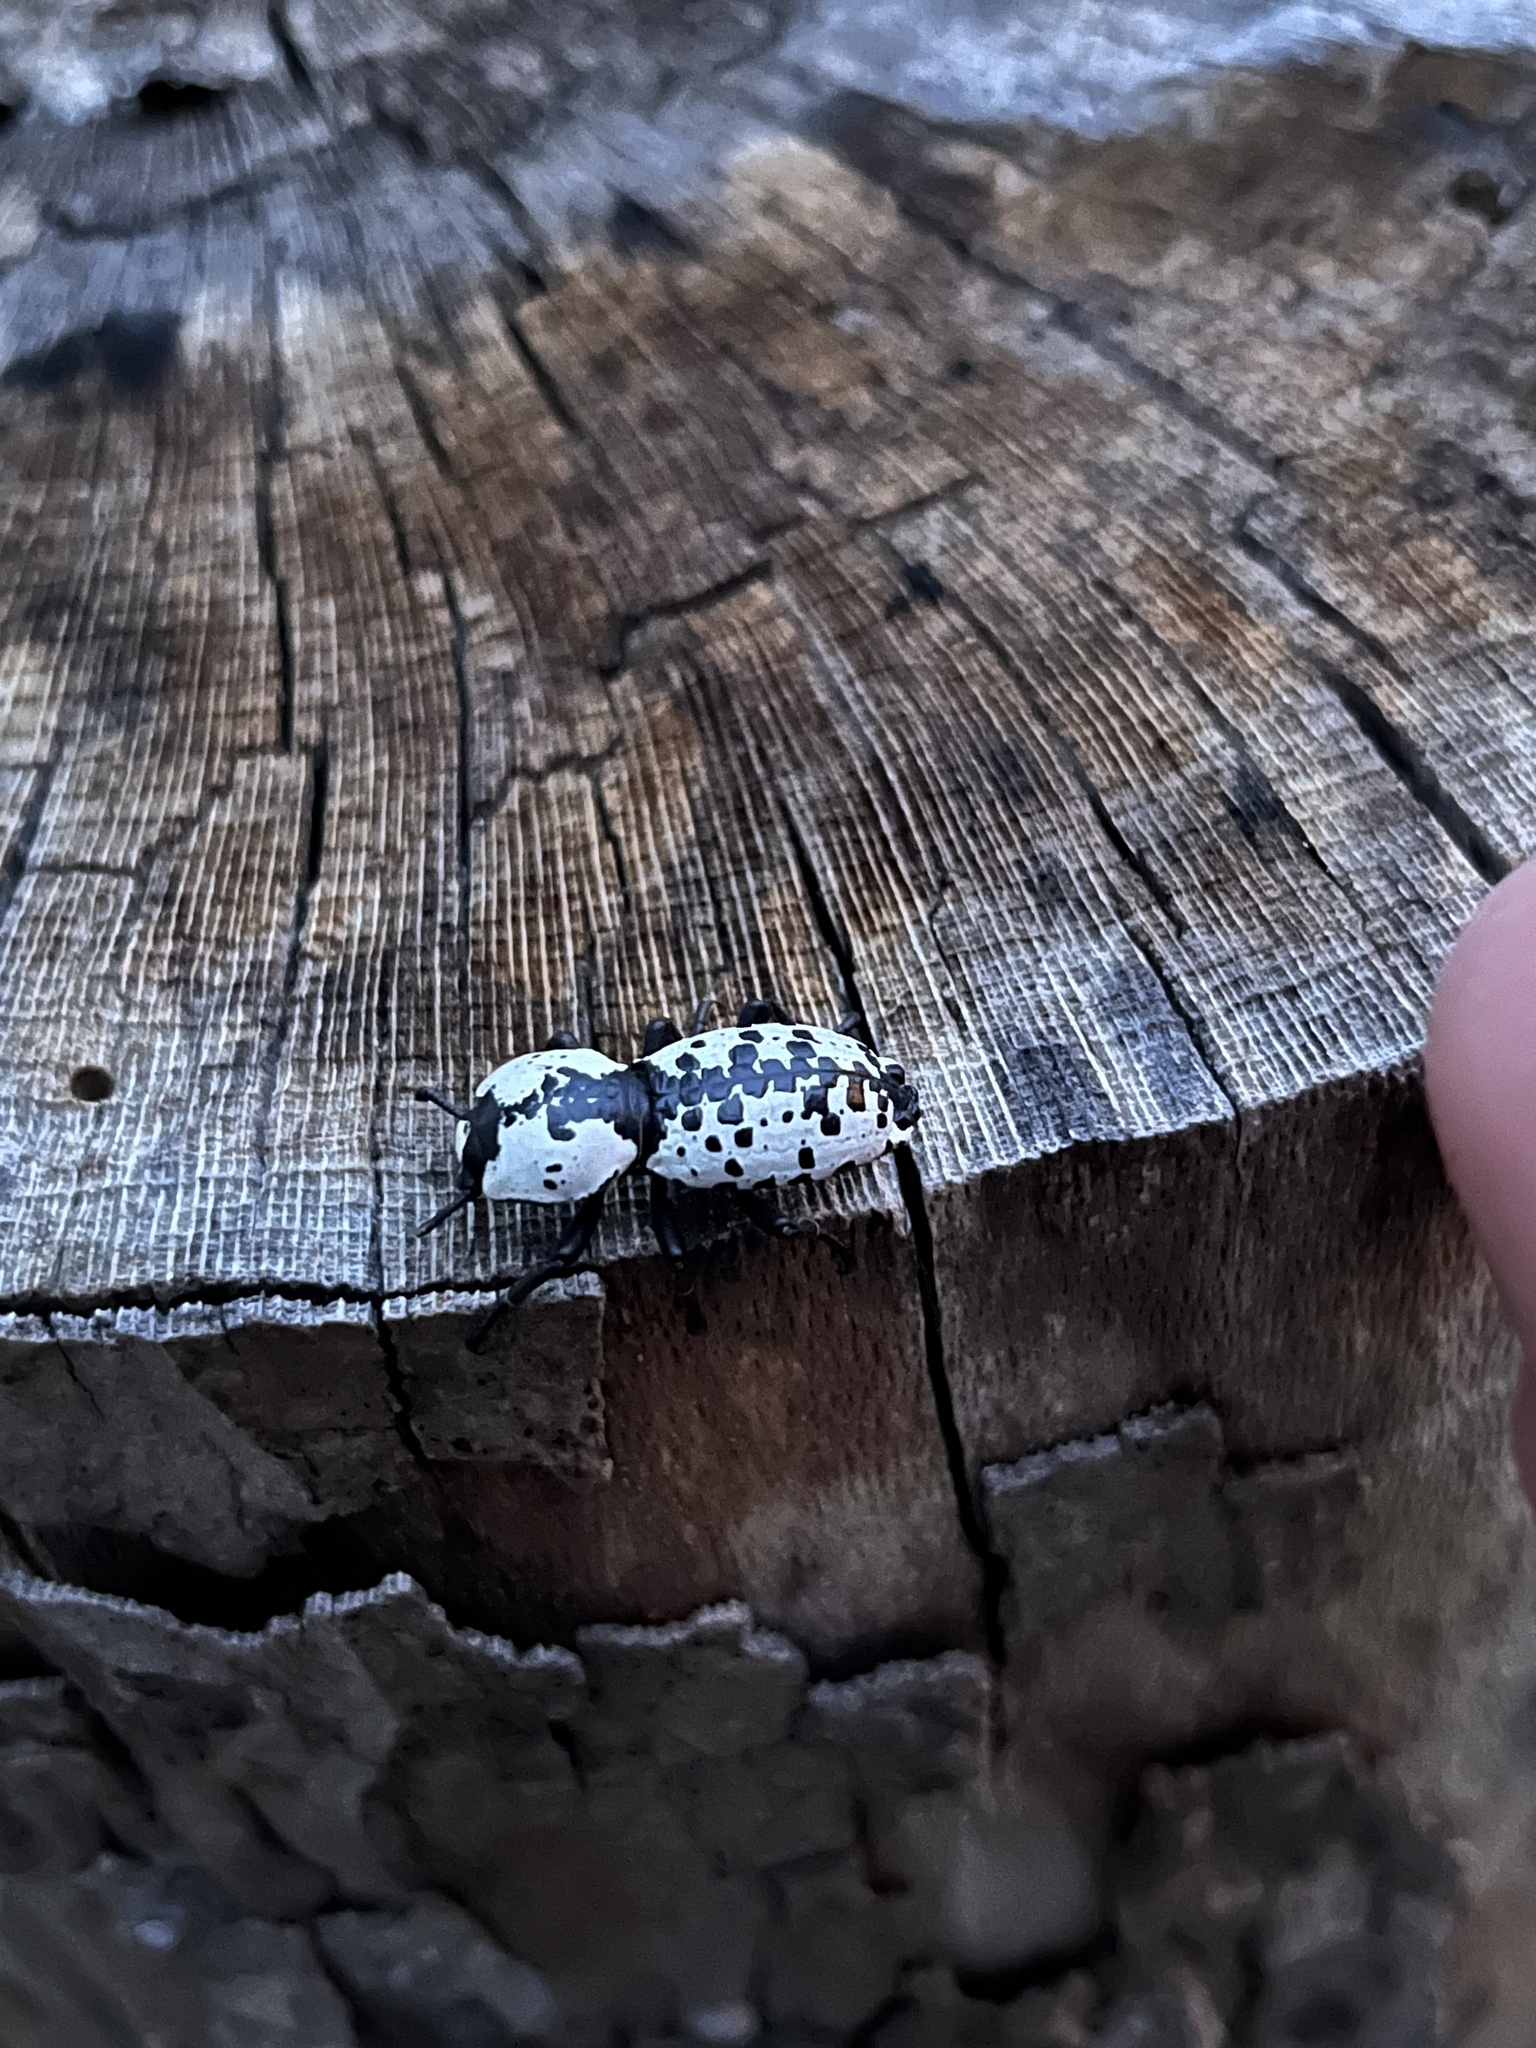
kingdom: Animalia
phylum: Arthropoda
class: Insecta
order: Coleoptera
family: Zopheridae
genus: Zopherus
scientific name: Zopherus nodulosus
